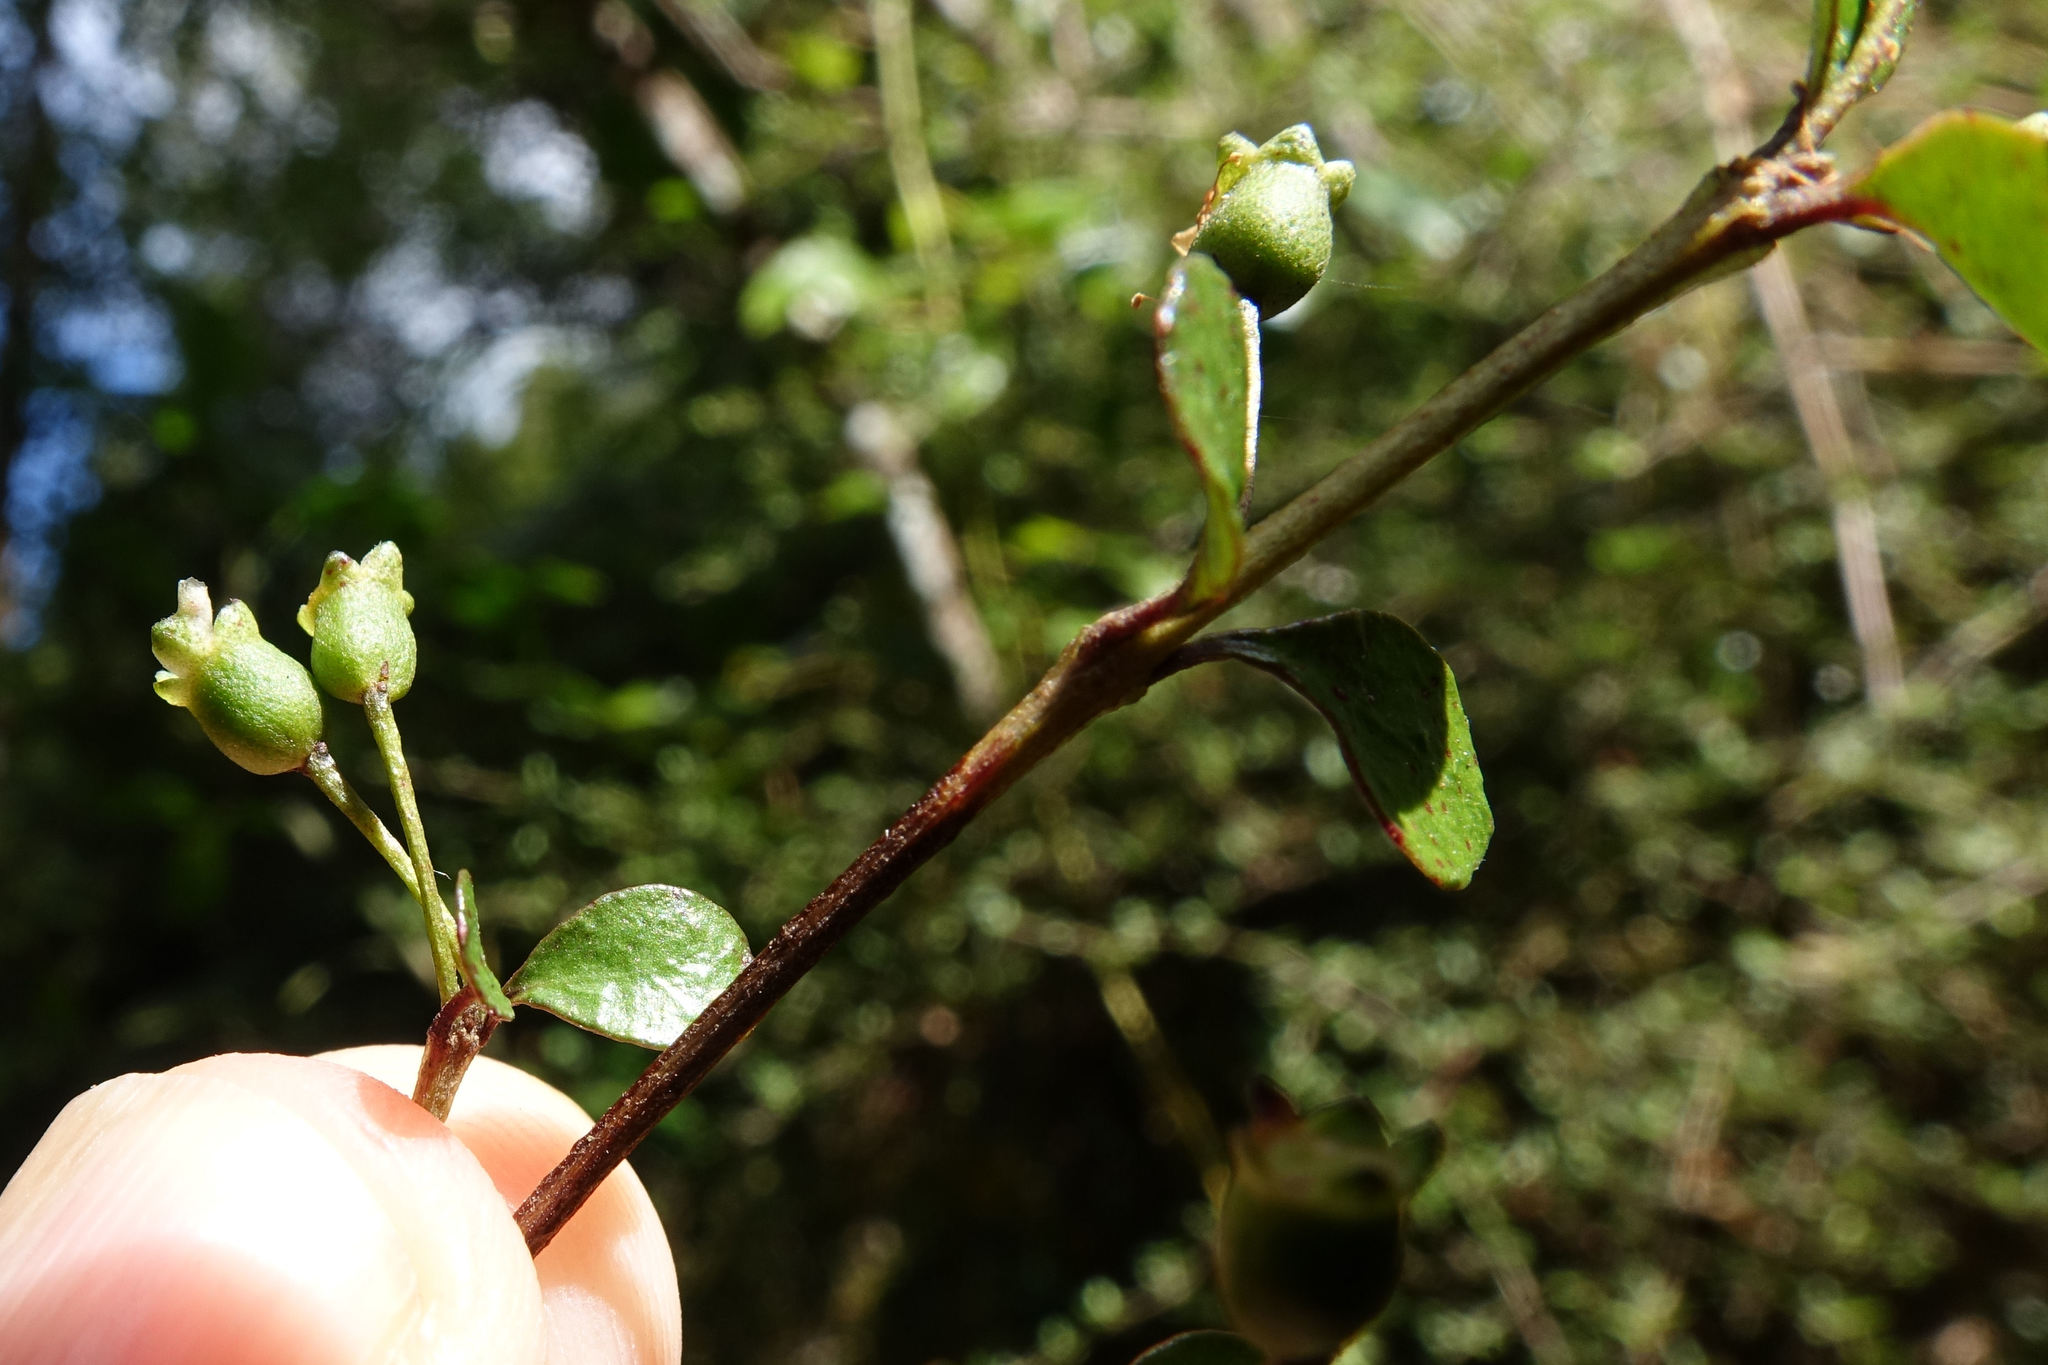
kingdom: Plantae
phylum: Tracheophyta
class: Magnoliopsida
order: Myrtales
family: Myrtaceae
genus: Neomyrtus
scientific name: Neomyrtus pedunculata
